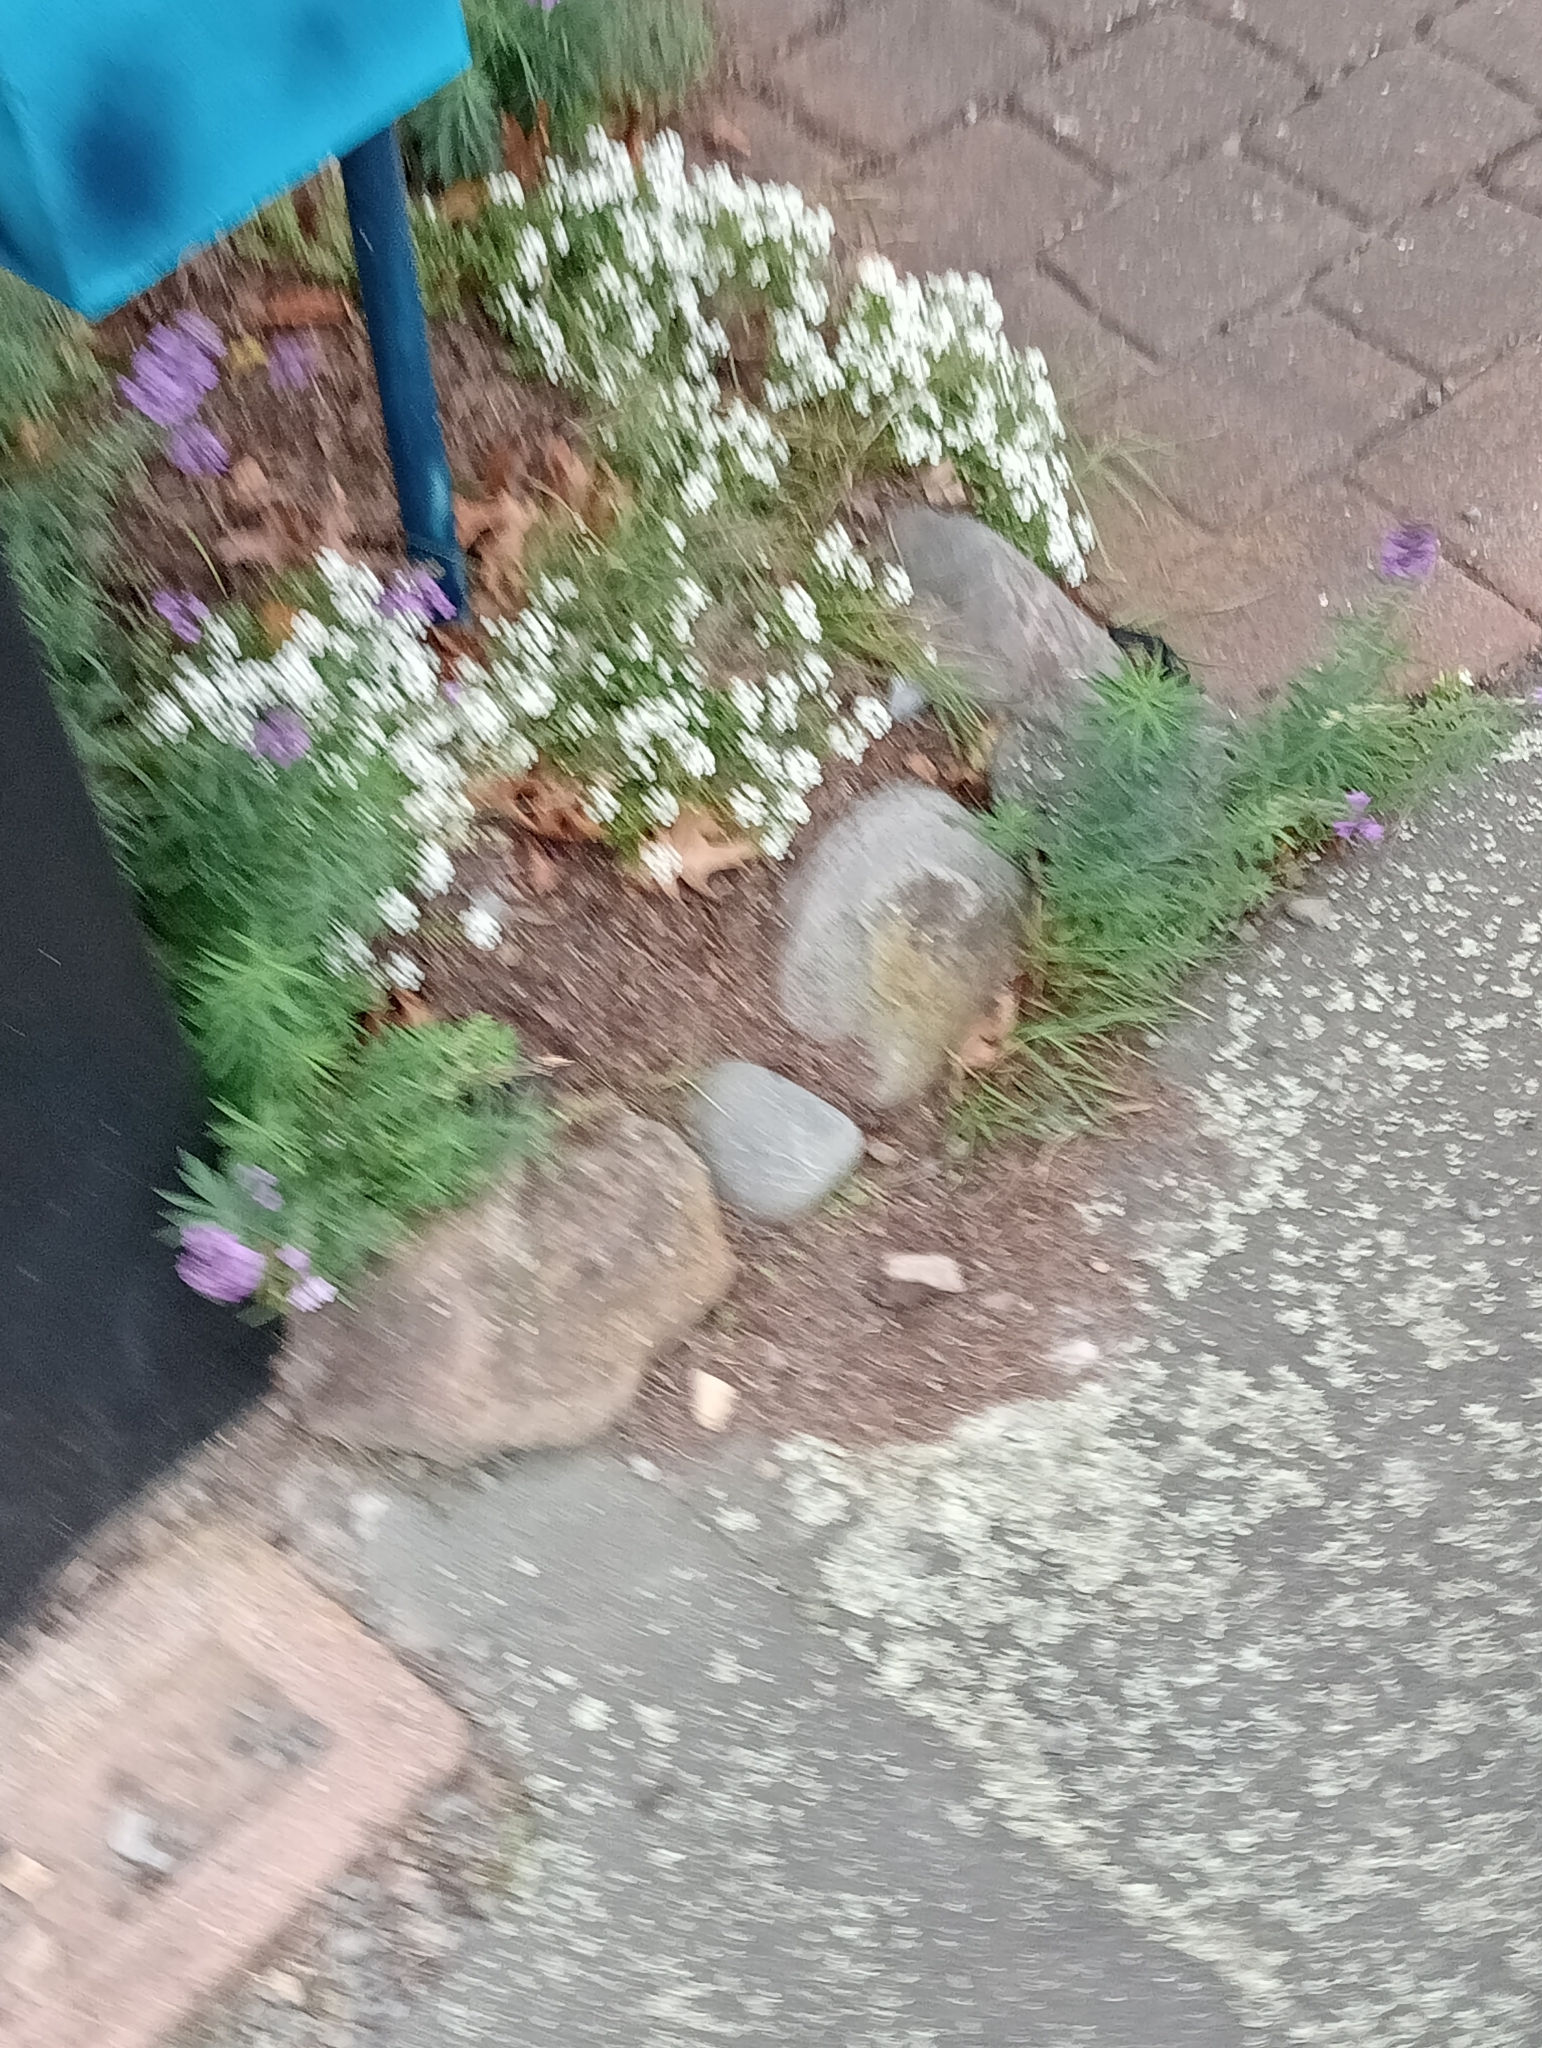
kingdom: Plantae
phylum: Tracheophyta
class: Magnoliopsida
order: Lamiales
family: Plantaginaceae
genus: Linaria
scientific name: Linaria purpurea
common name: Purple toadflax
